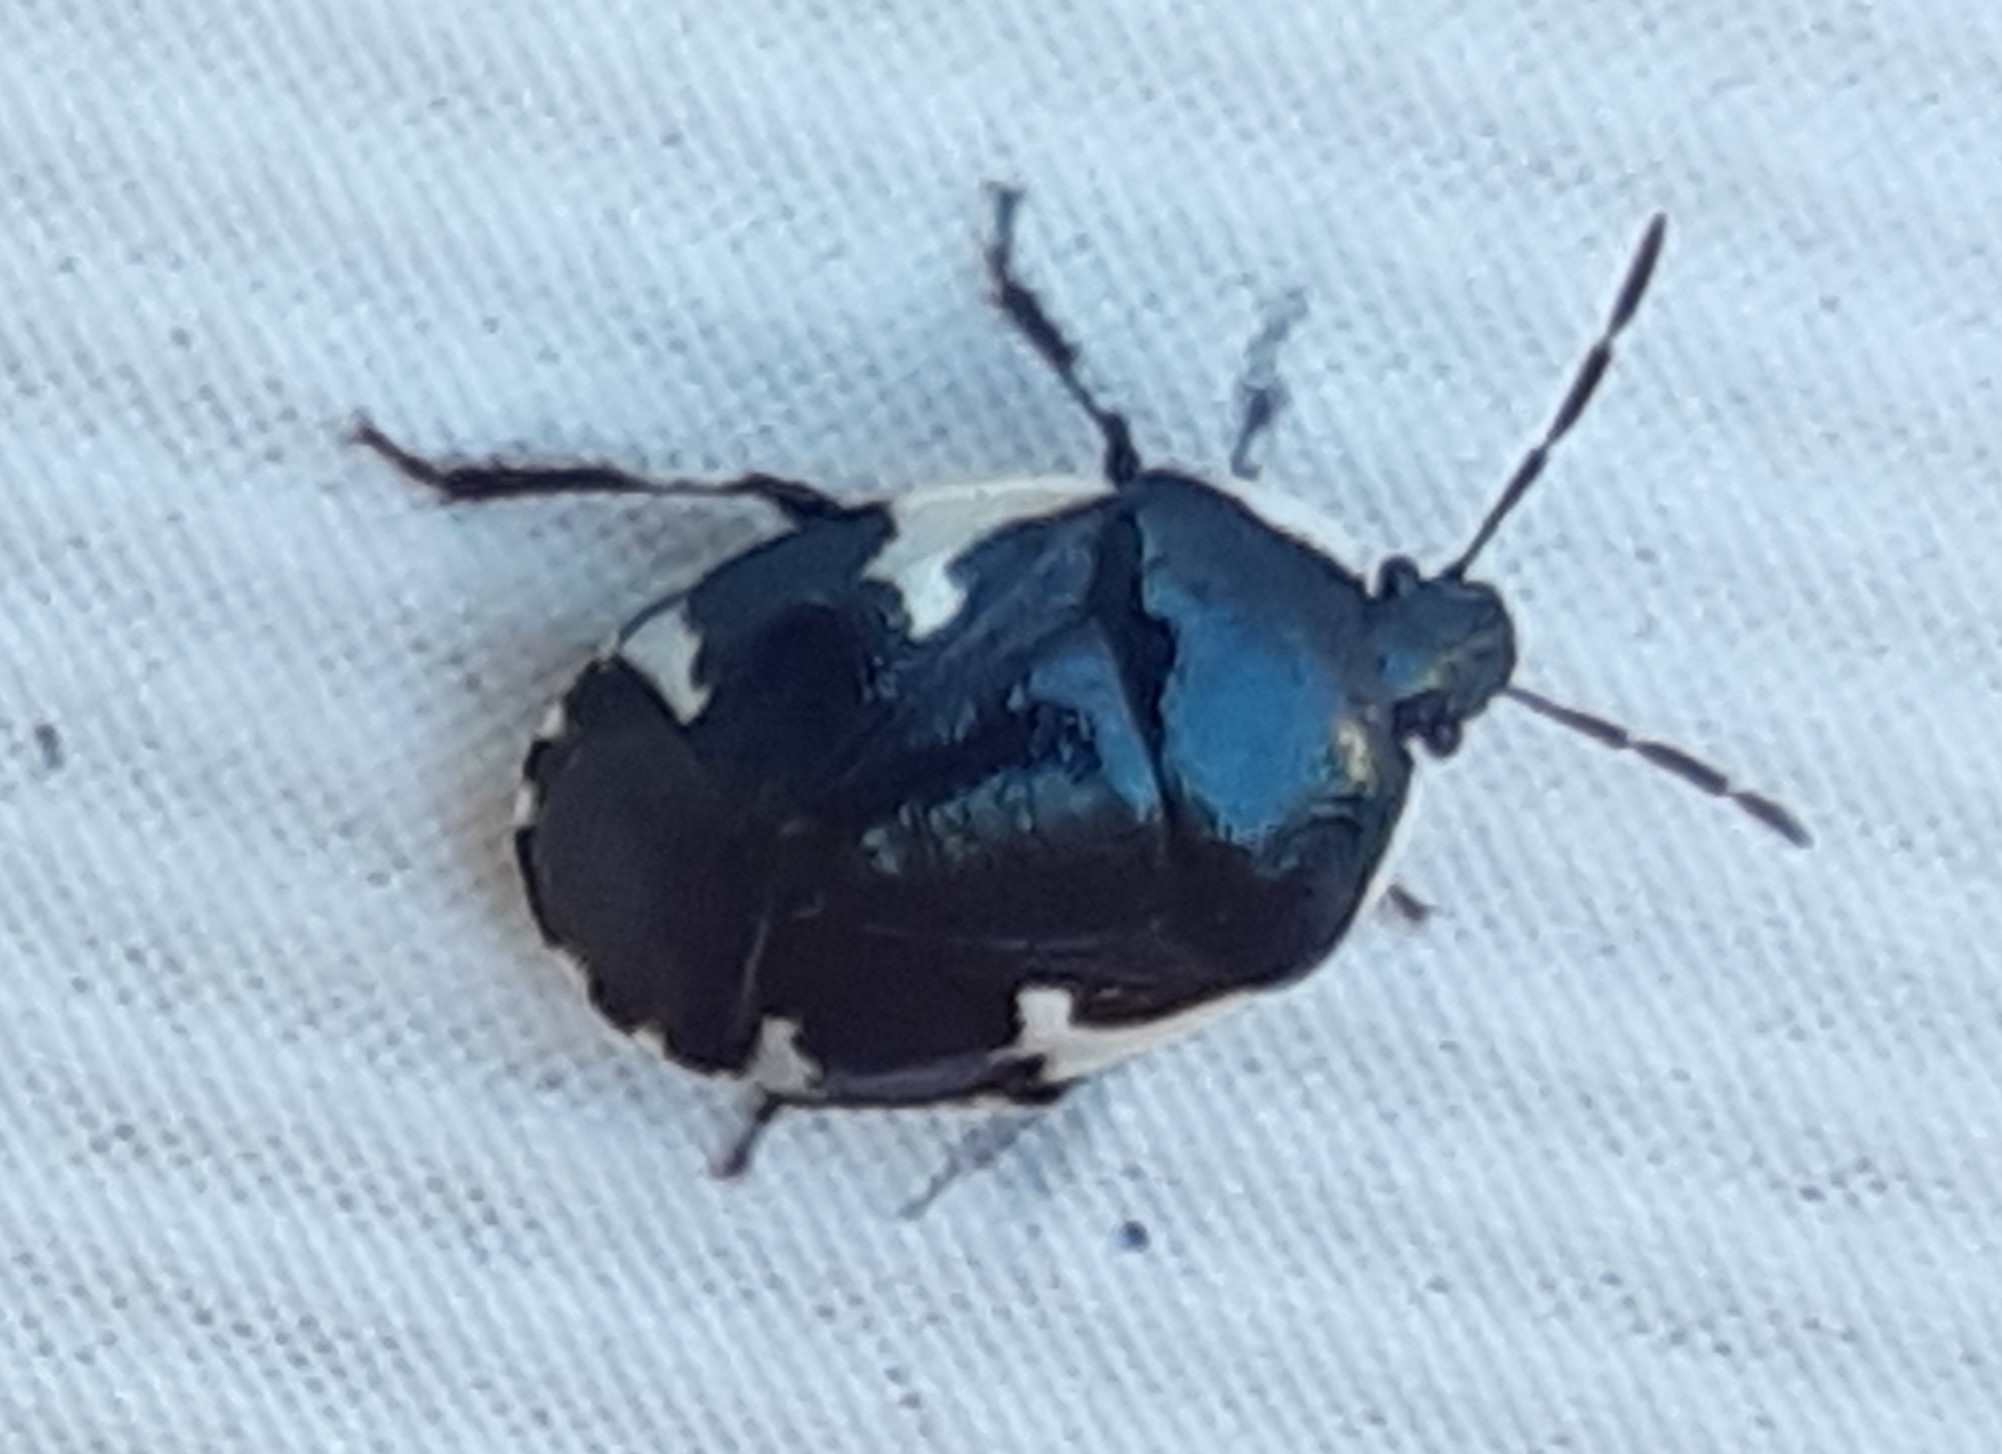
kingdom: Animalia
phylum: Arthropoda
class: Insecta
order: Hemiptera
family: Cydnidae
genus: Tritomegas
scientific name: Tritomegas sexmaculatus
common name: Rambur's pied shieldbug
